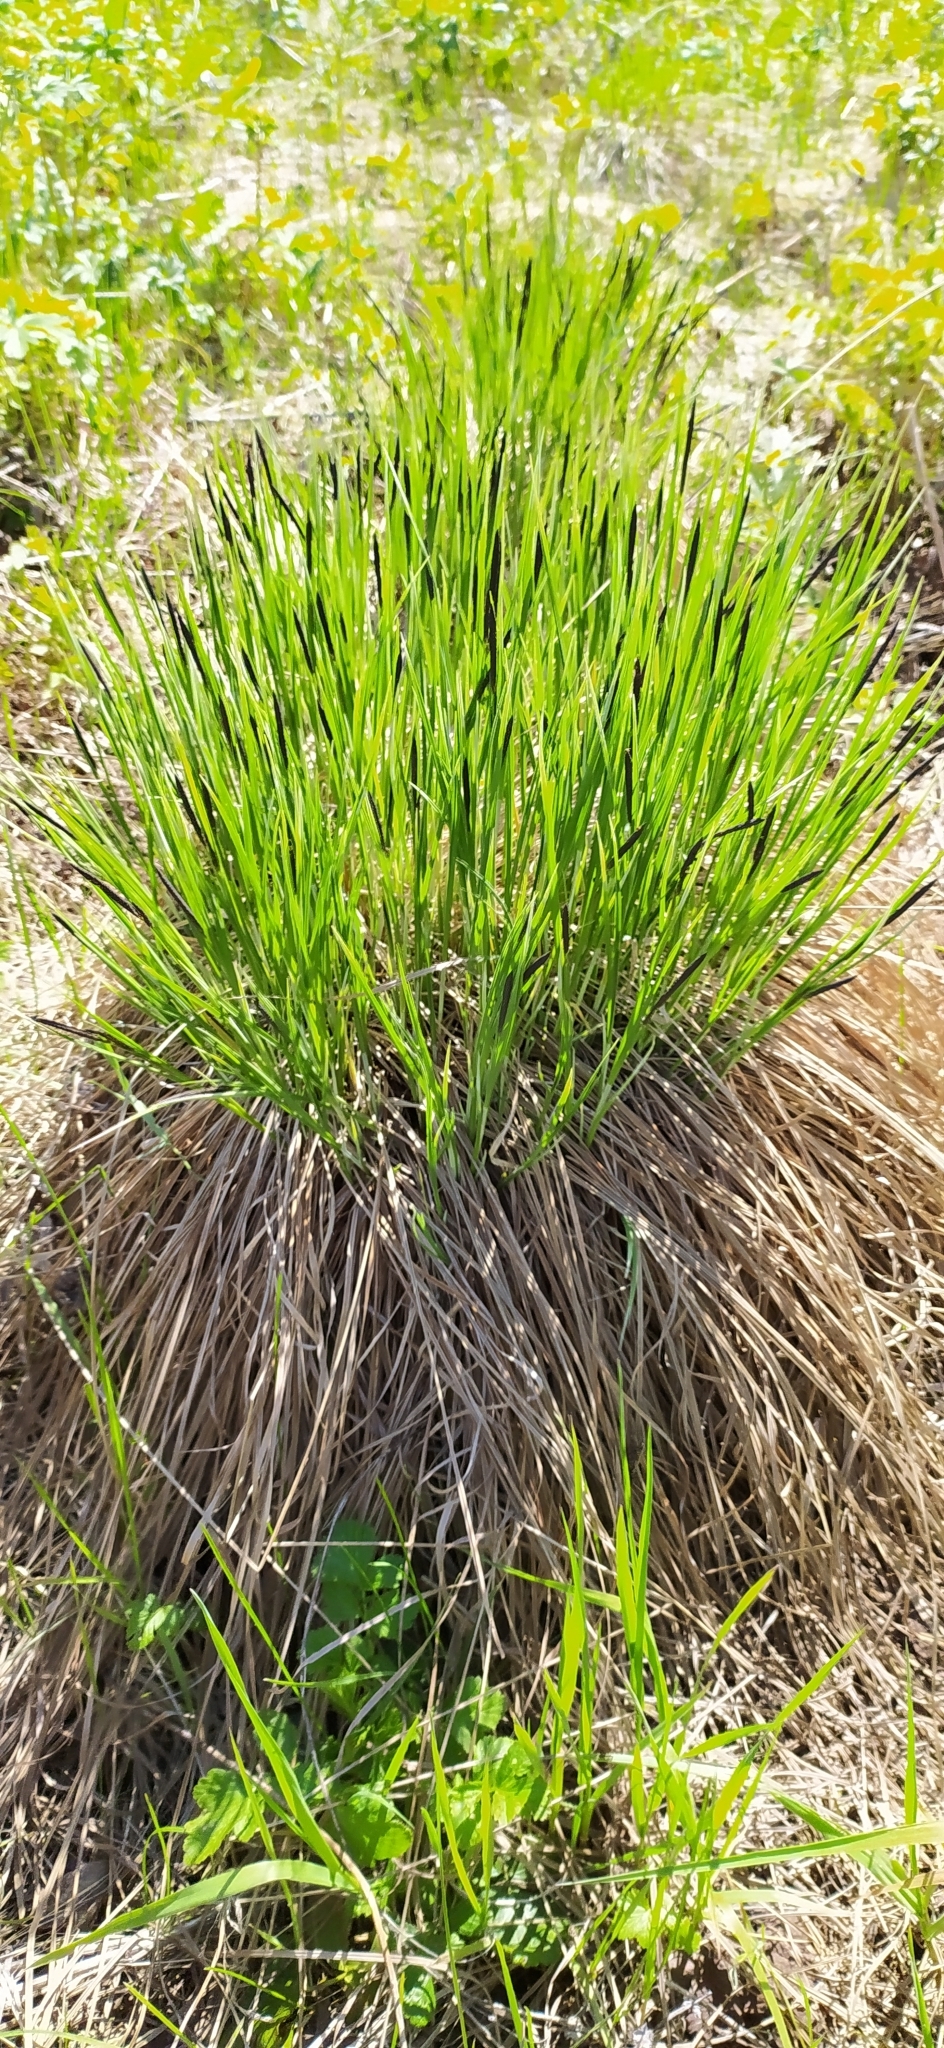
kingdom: Plantae
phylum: Tracheophyta
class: Liliopsida
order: Poales
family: Cyperaceae
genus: Carex
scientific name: Carex cespitosa
